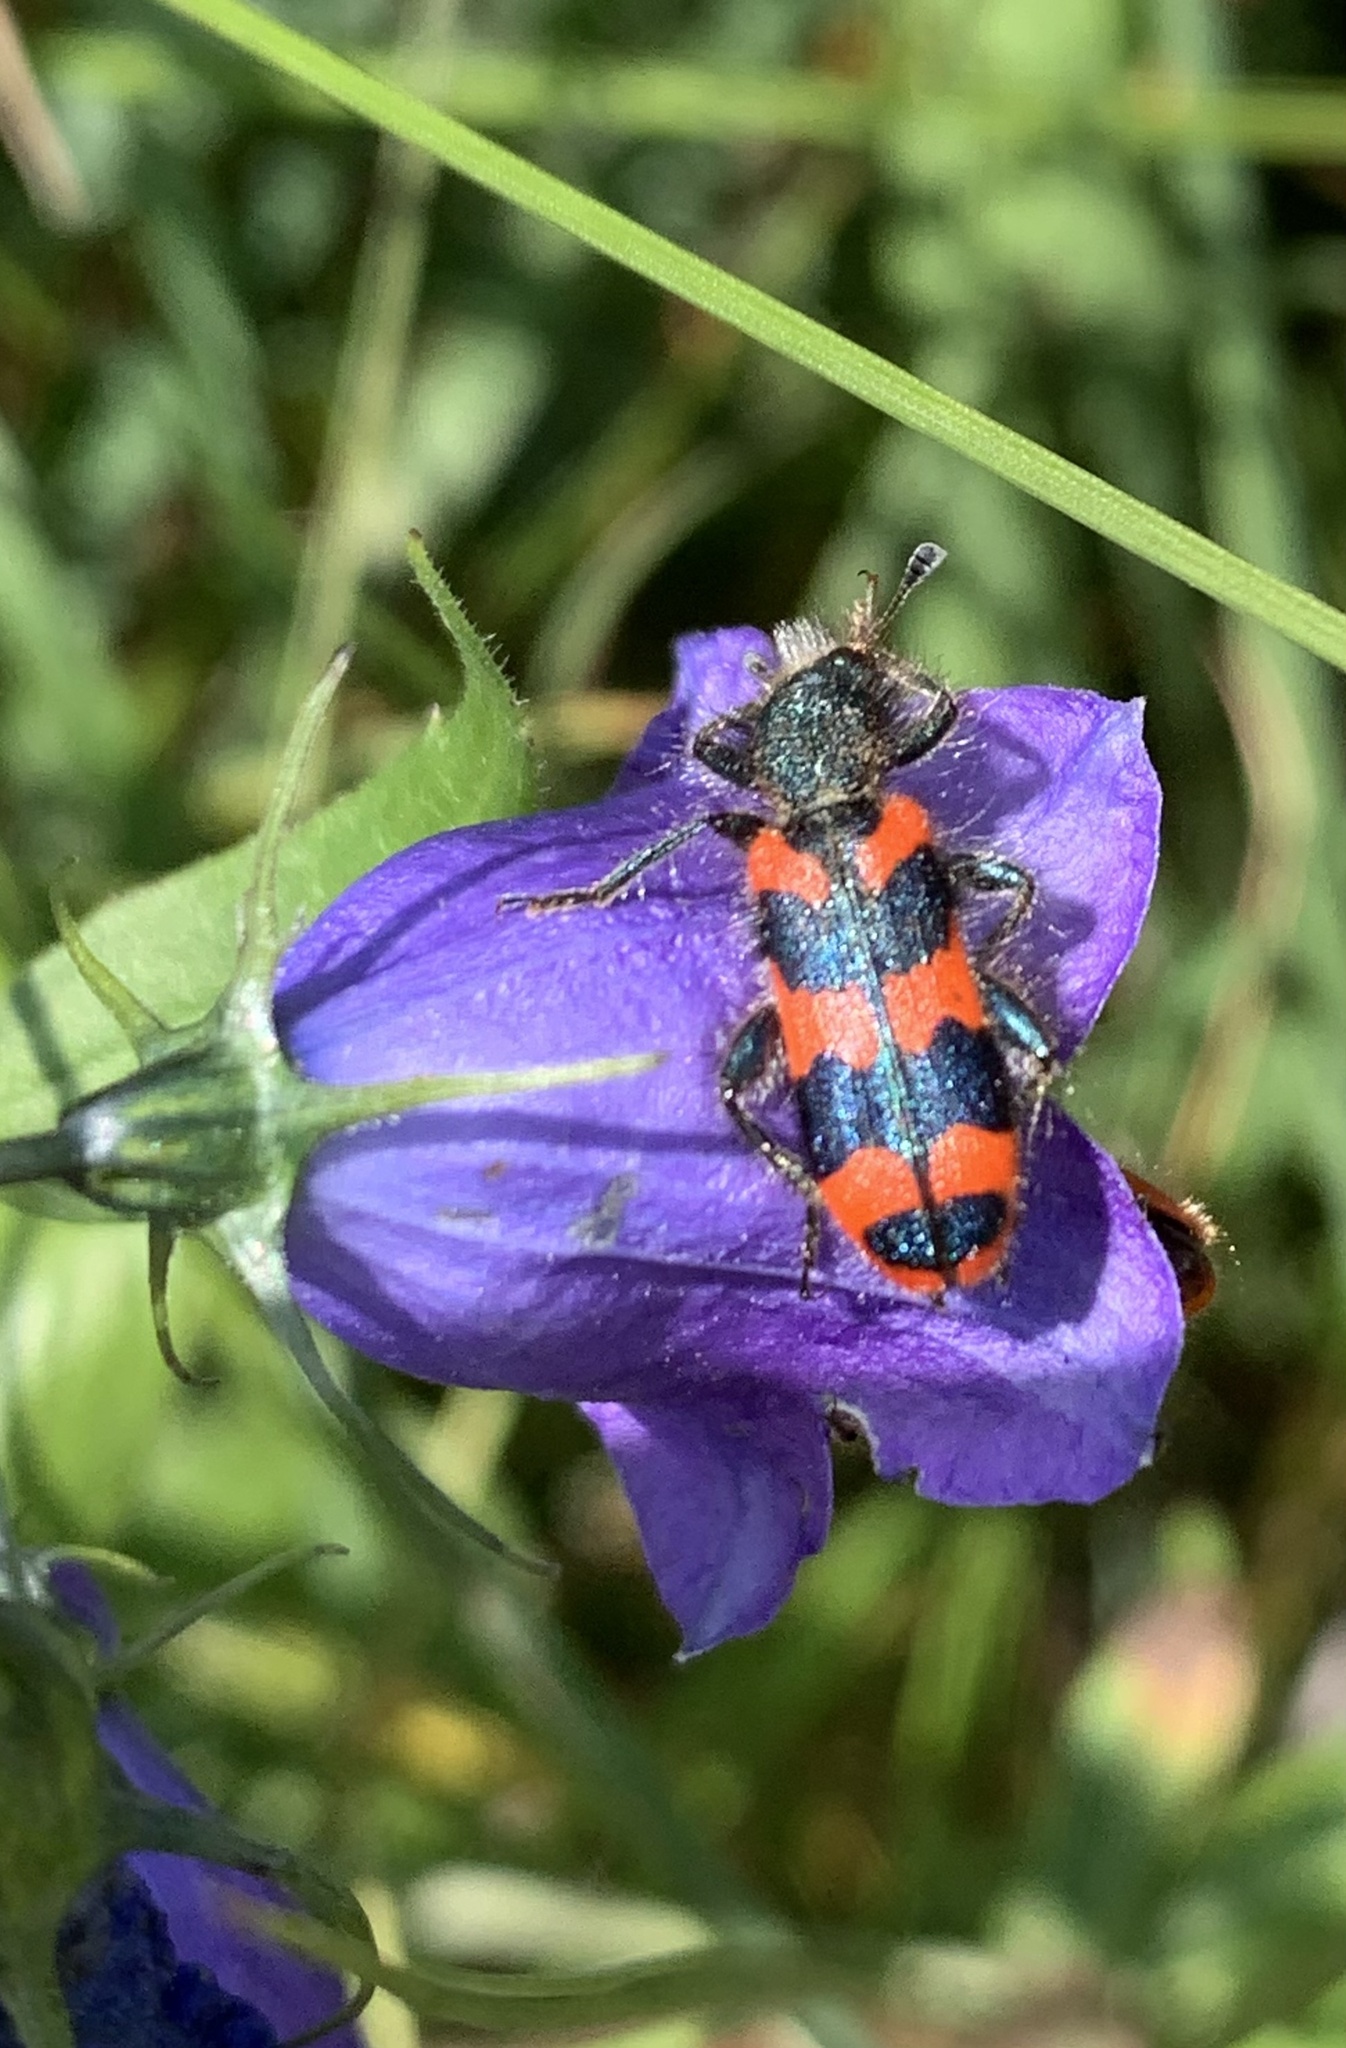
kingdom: Animalia
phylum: Arthropoda
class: Insecta
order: Coleoptera
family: Cleridae
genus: Trichodes
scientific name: Trichodes alvearius
